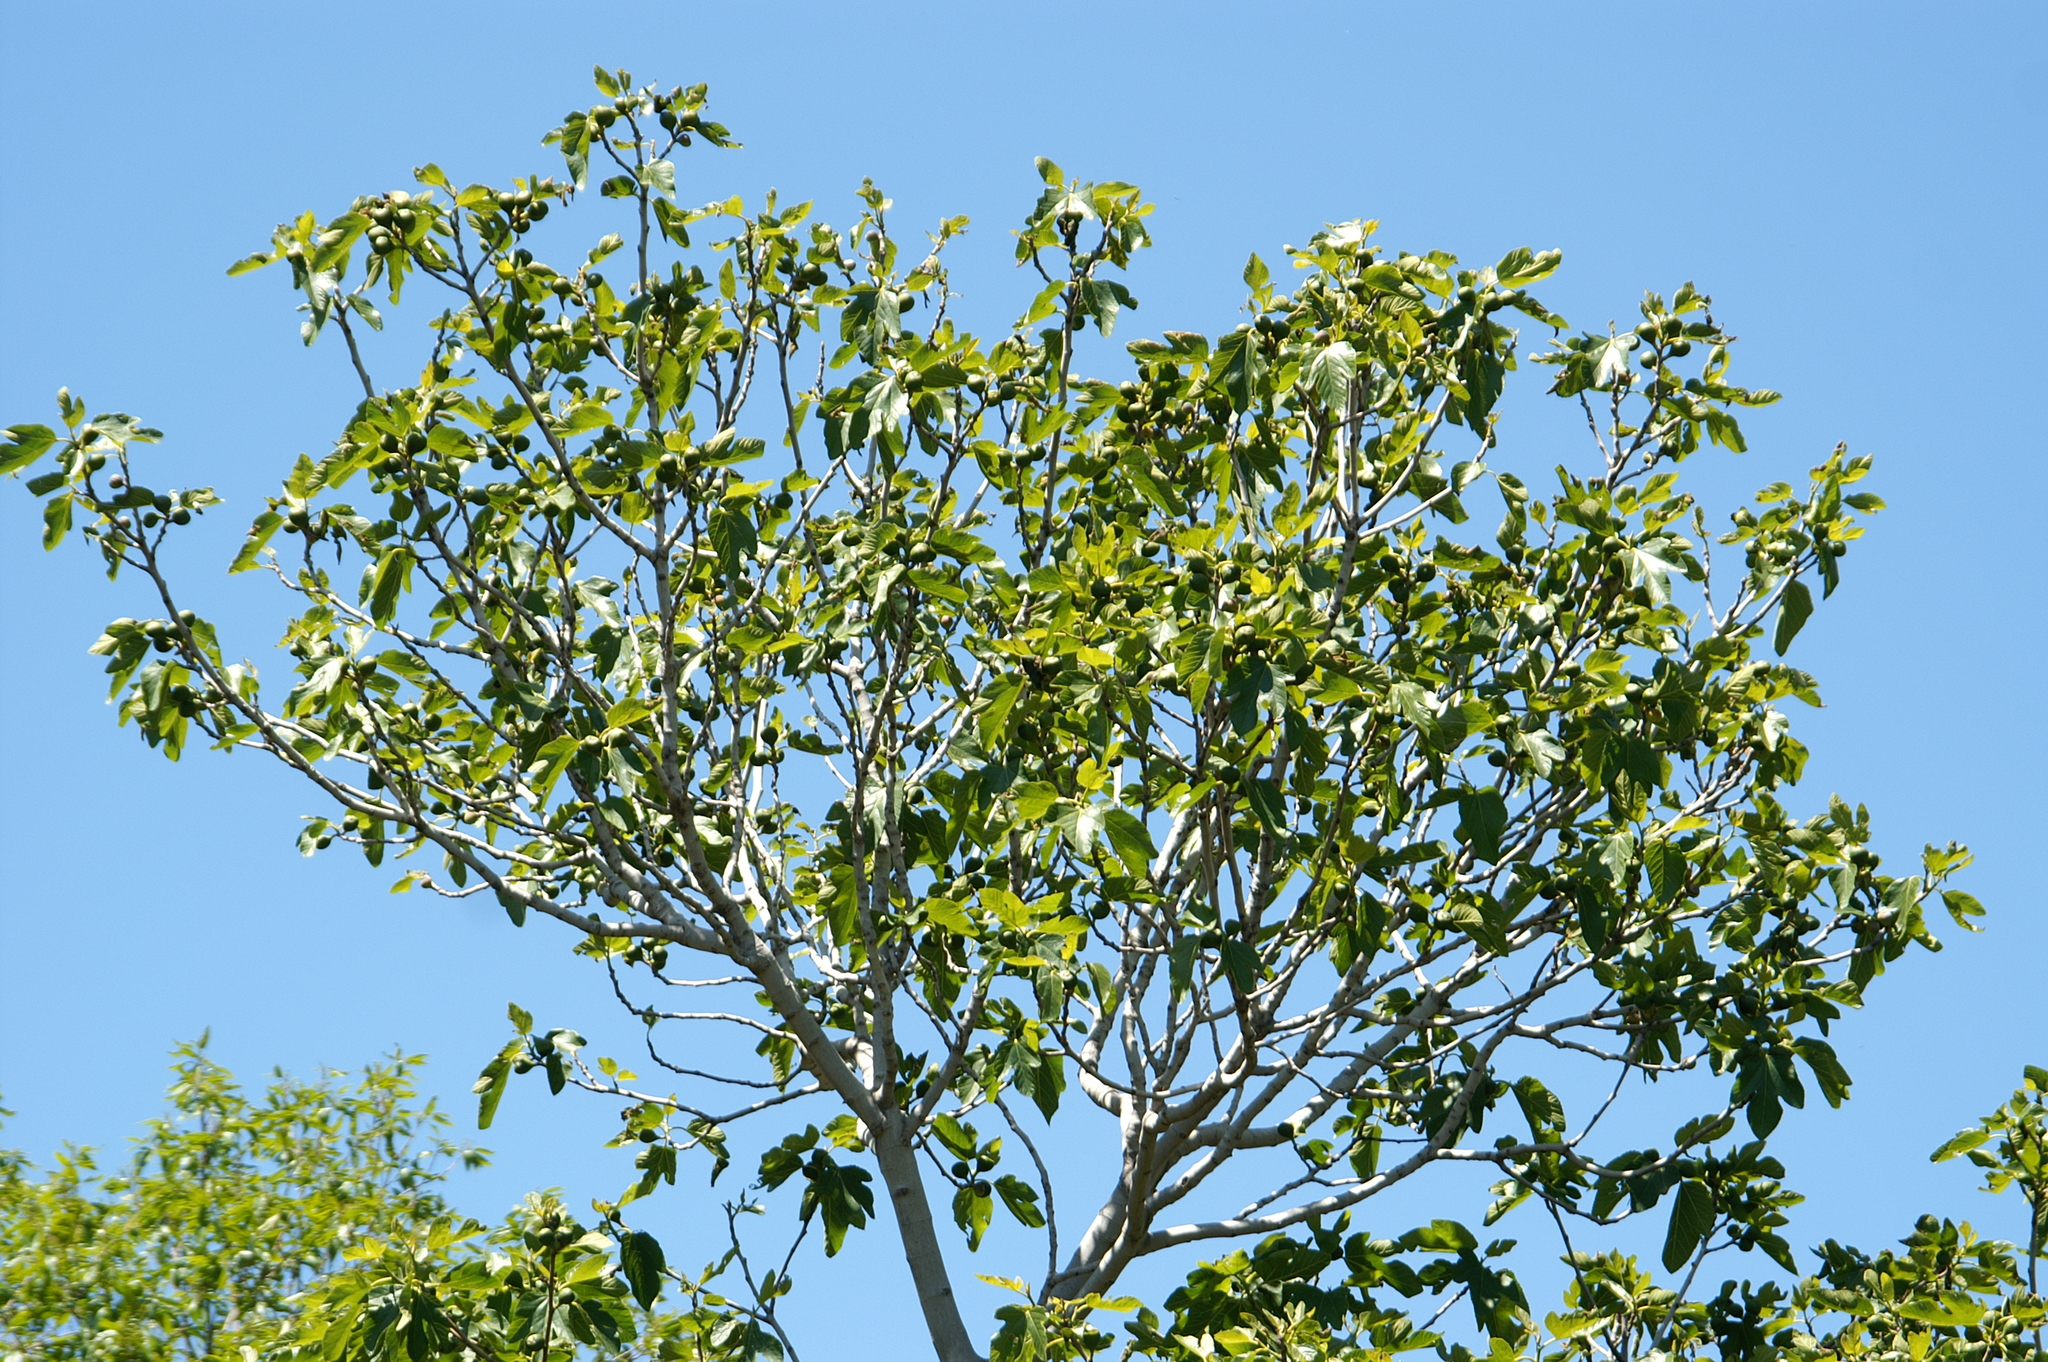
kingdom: Plantae
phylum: Tracheophyta
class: Magnoliopsida
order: Rosales
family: Moraceae
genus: Ficus
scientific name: Ficus carica
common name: Fig
